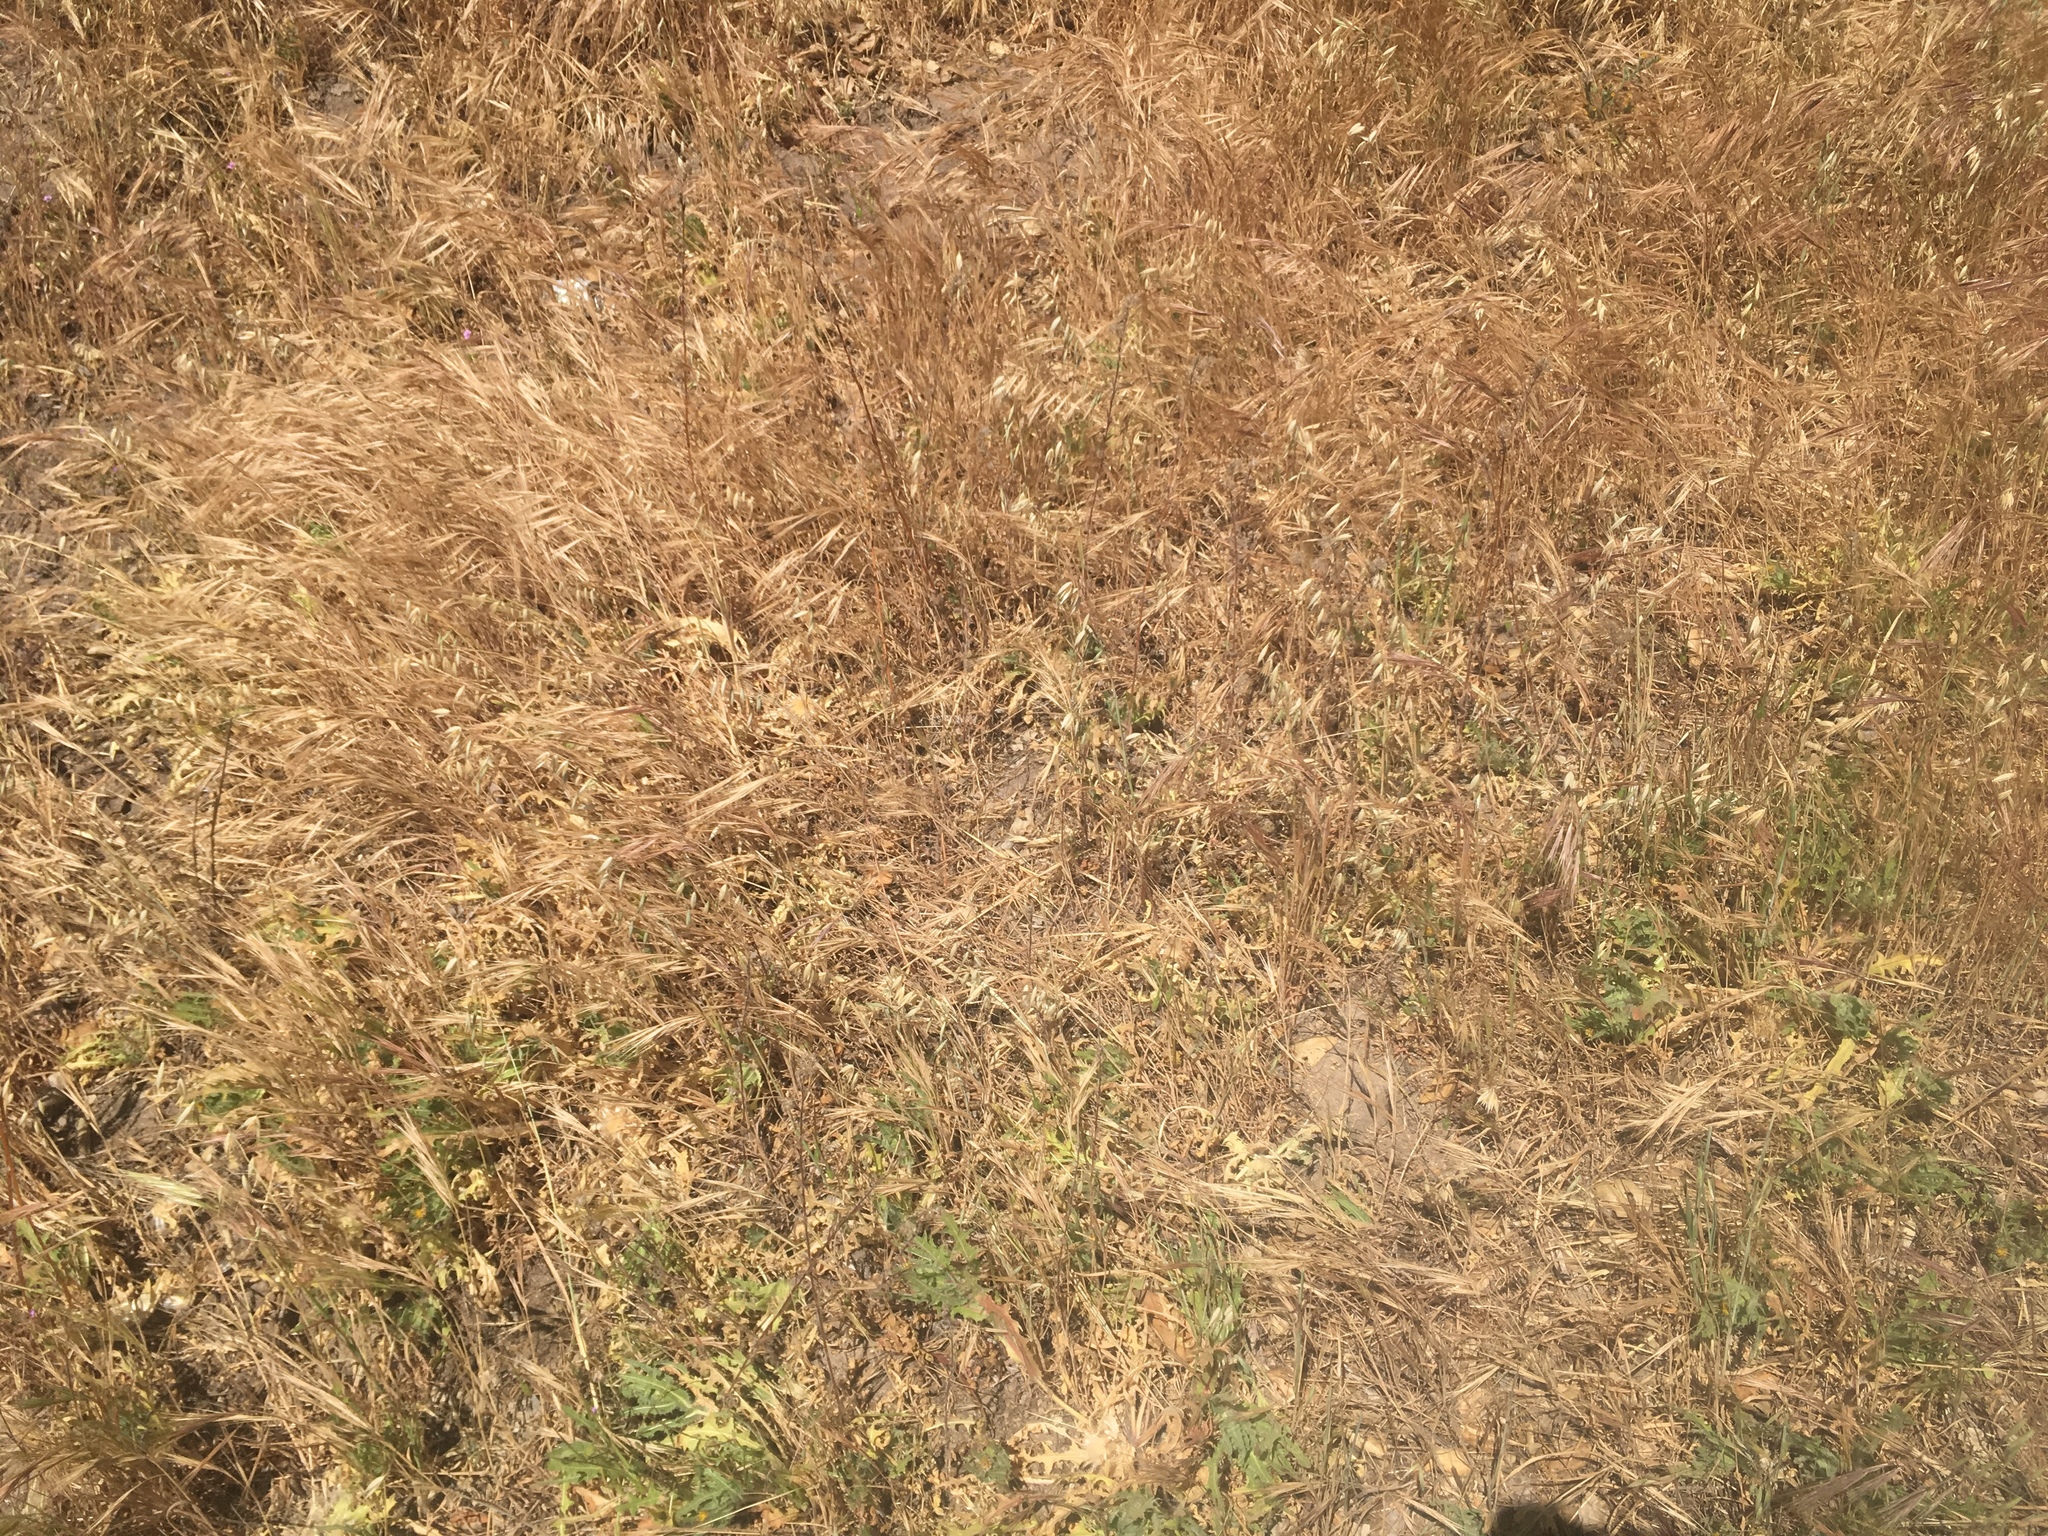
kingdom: Plantae
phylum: Tracheophyta
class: Magnoliopsida
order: Asterales
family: Asteraceae
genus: Centaurea
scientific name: Centaurea benedicta
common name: Blessed thistle
